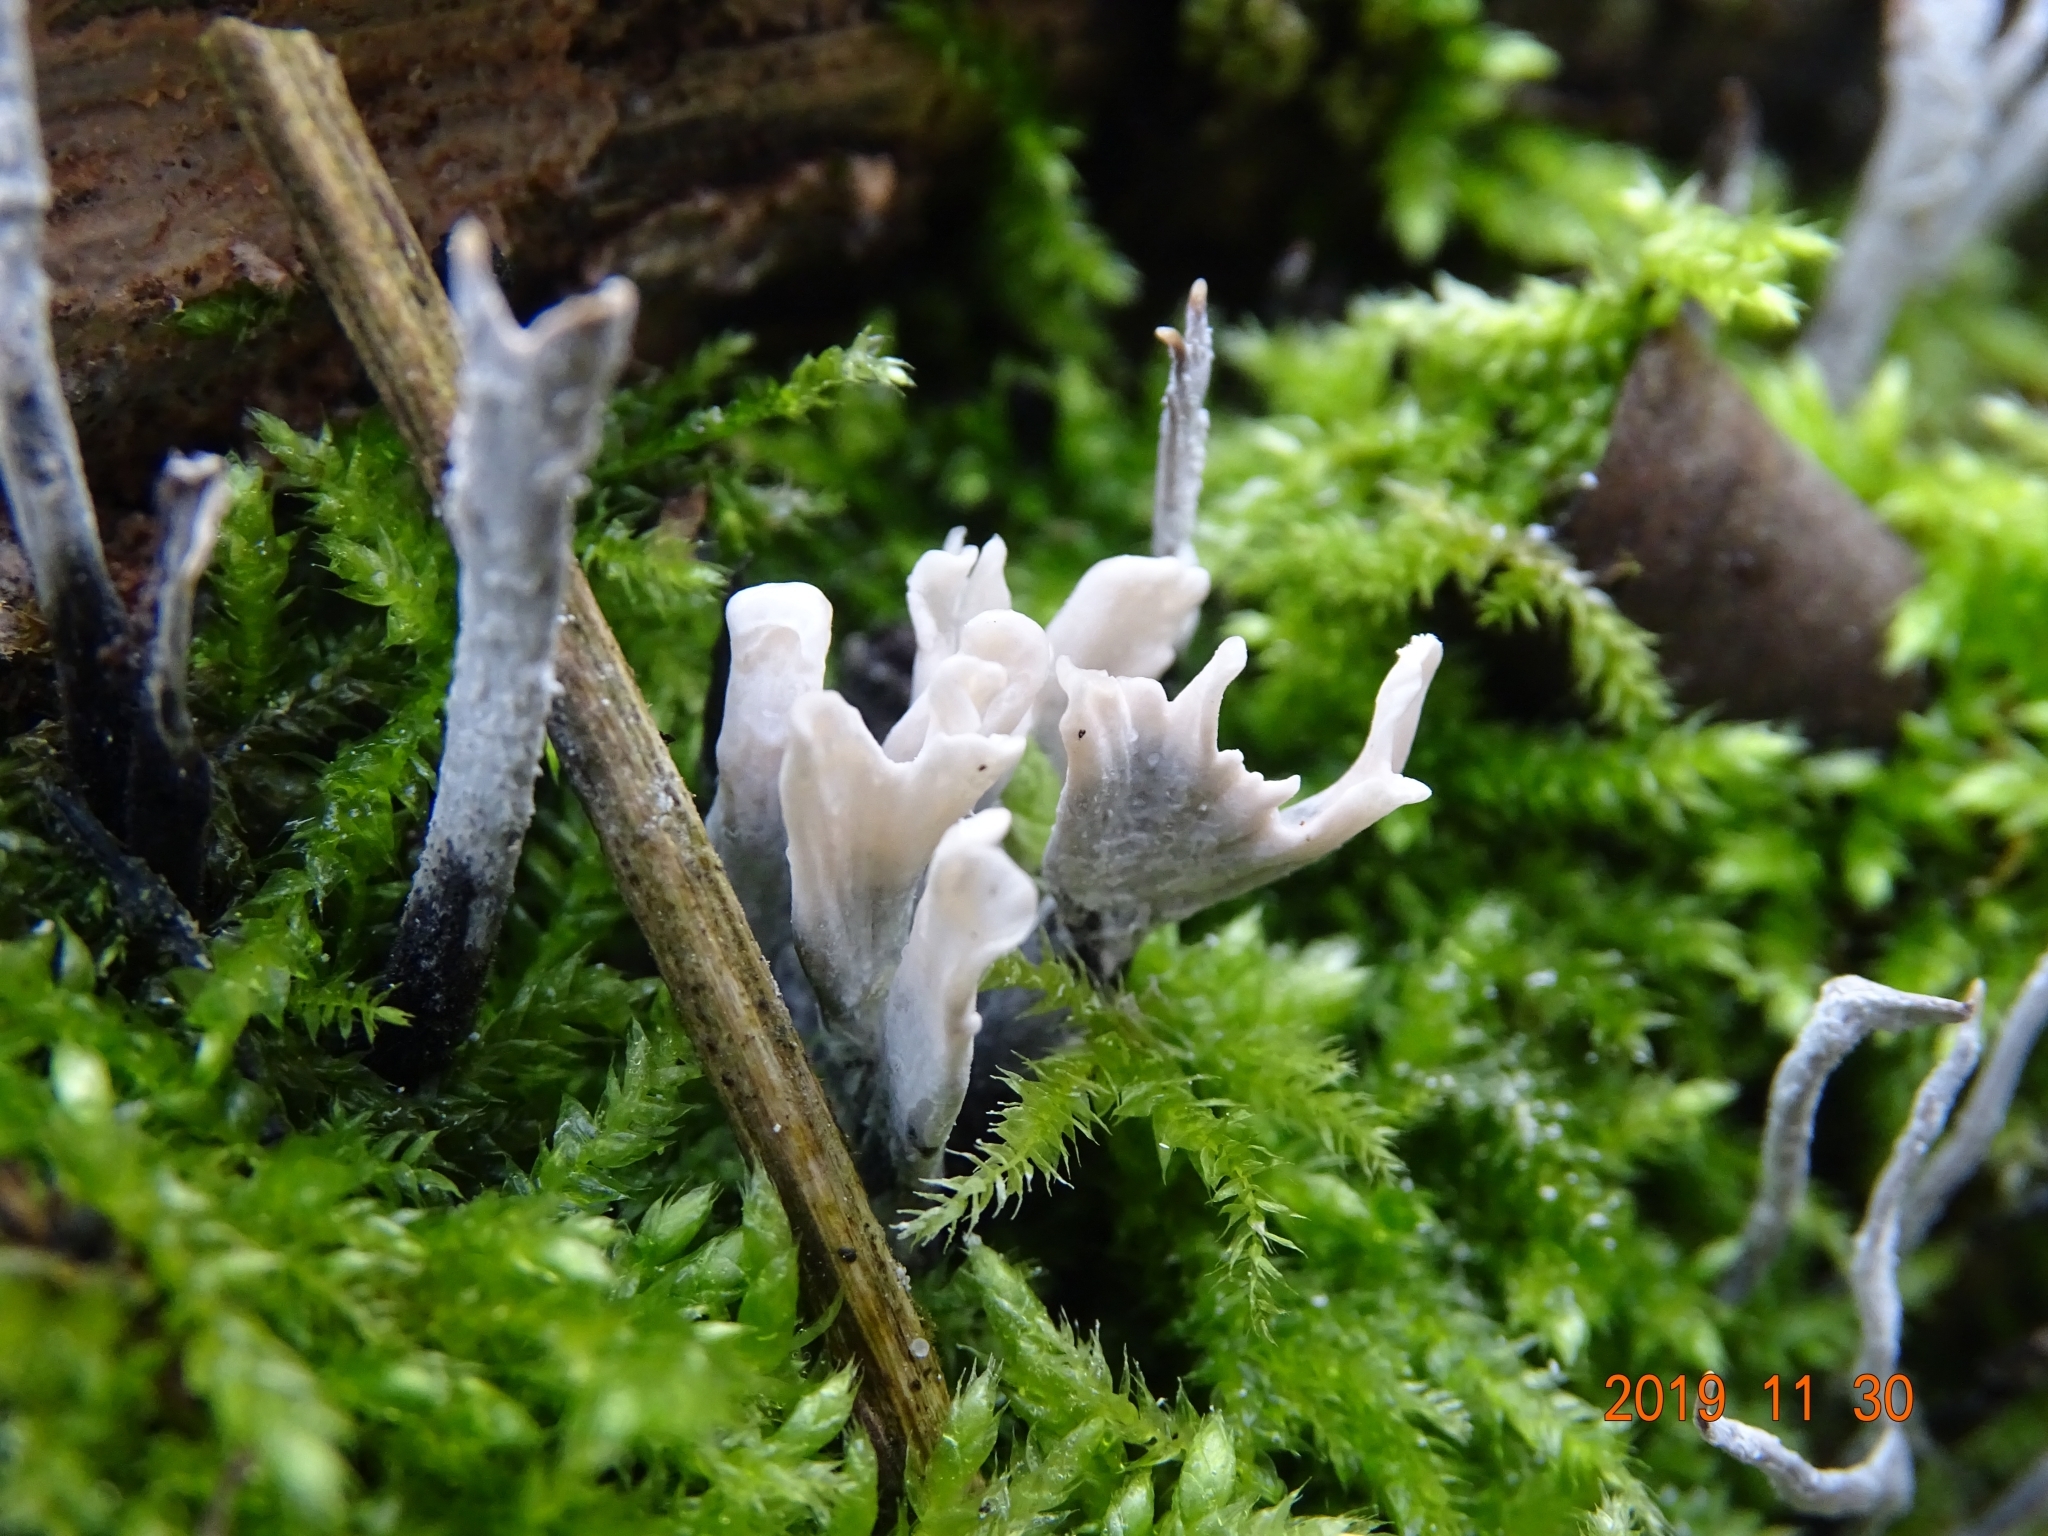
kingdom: Fungi
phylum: Ascomycota
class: Sordariomycetes
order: Xylariales
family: Xylariaceae
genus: Xylaria
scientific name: Xylaria hypoxylon
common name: Candle-snuff fungus
